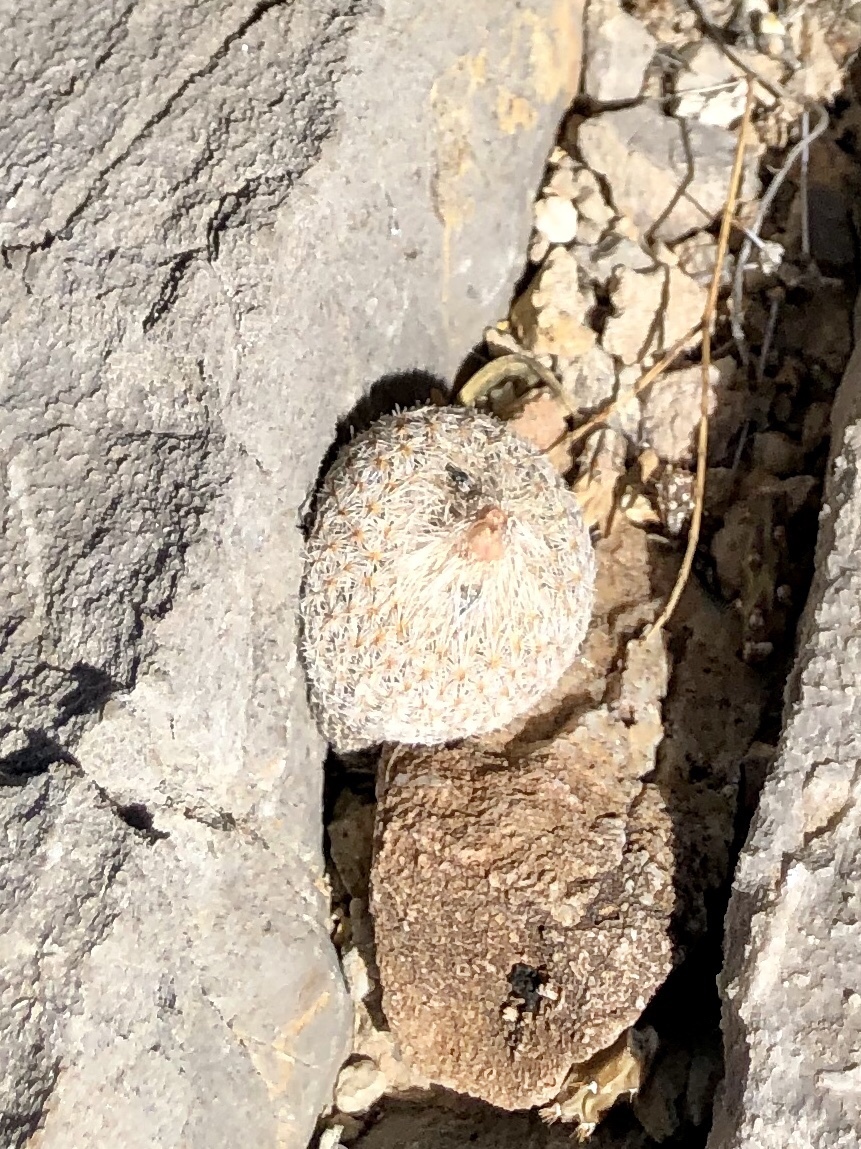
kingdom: Plantae
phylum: Tracheophyta
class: Magnoliopsida
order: Caryophyllales
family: Cactaceae
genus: Epithelantha
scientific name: Epithelantha micromeris
